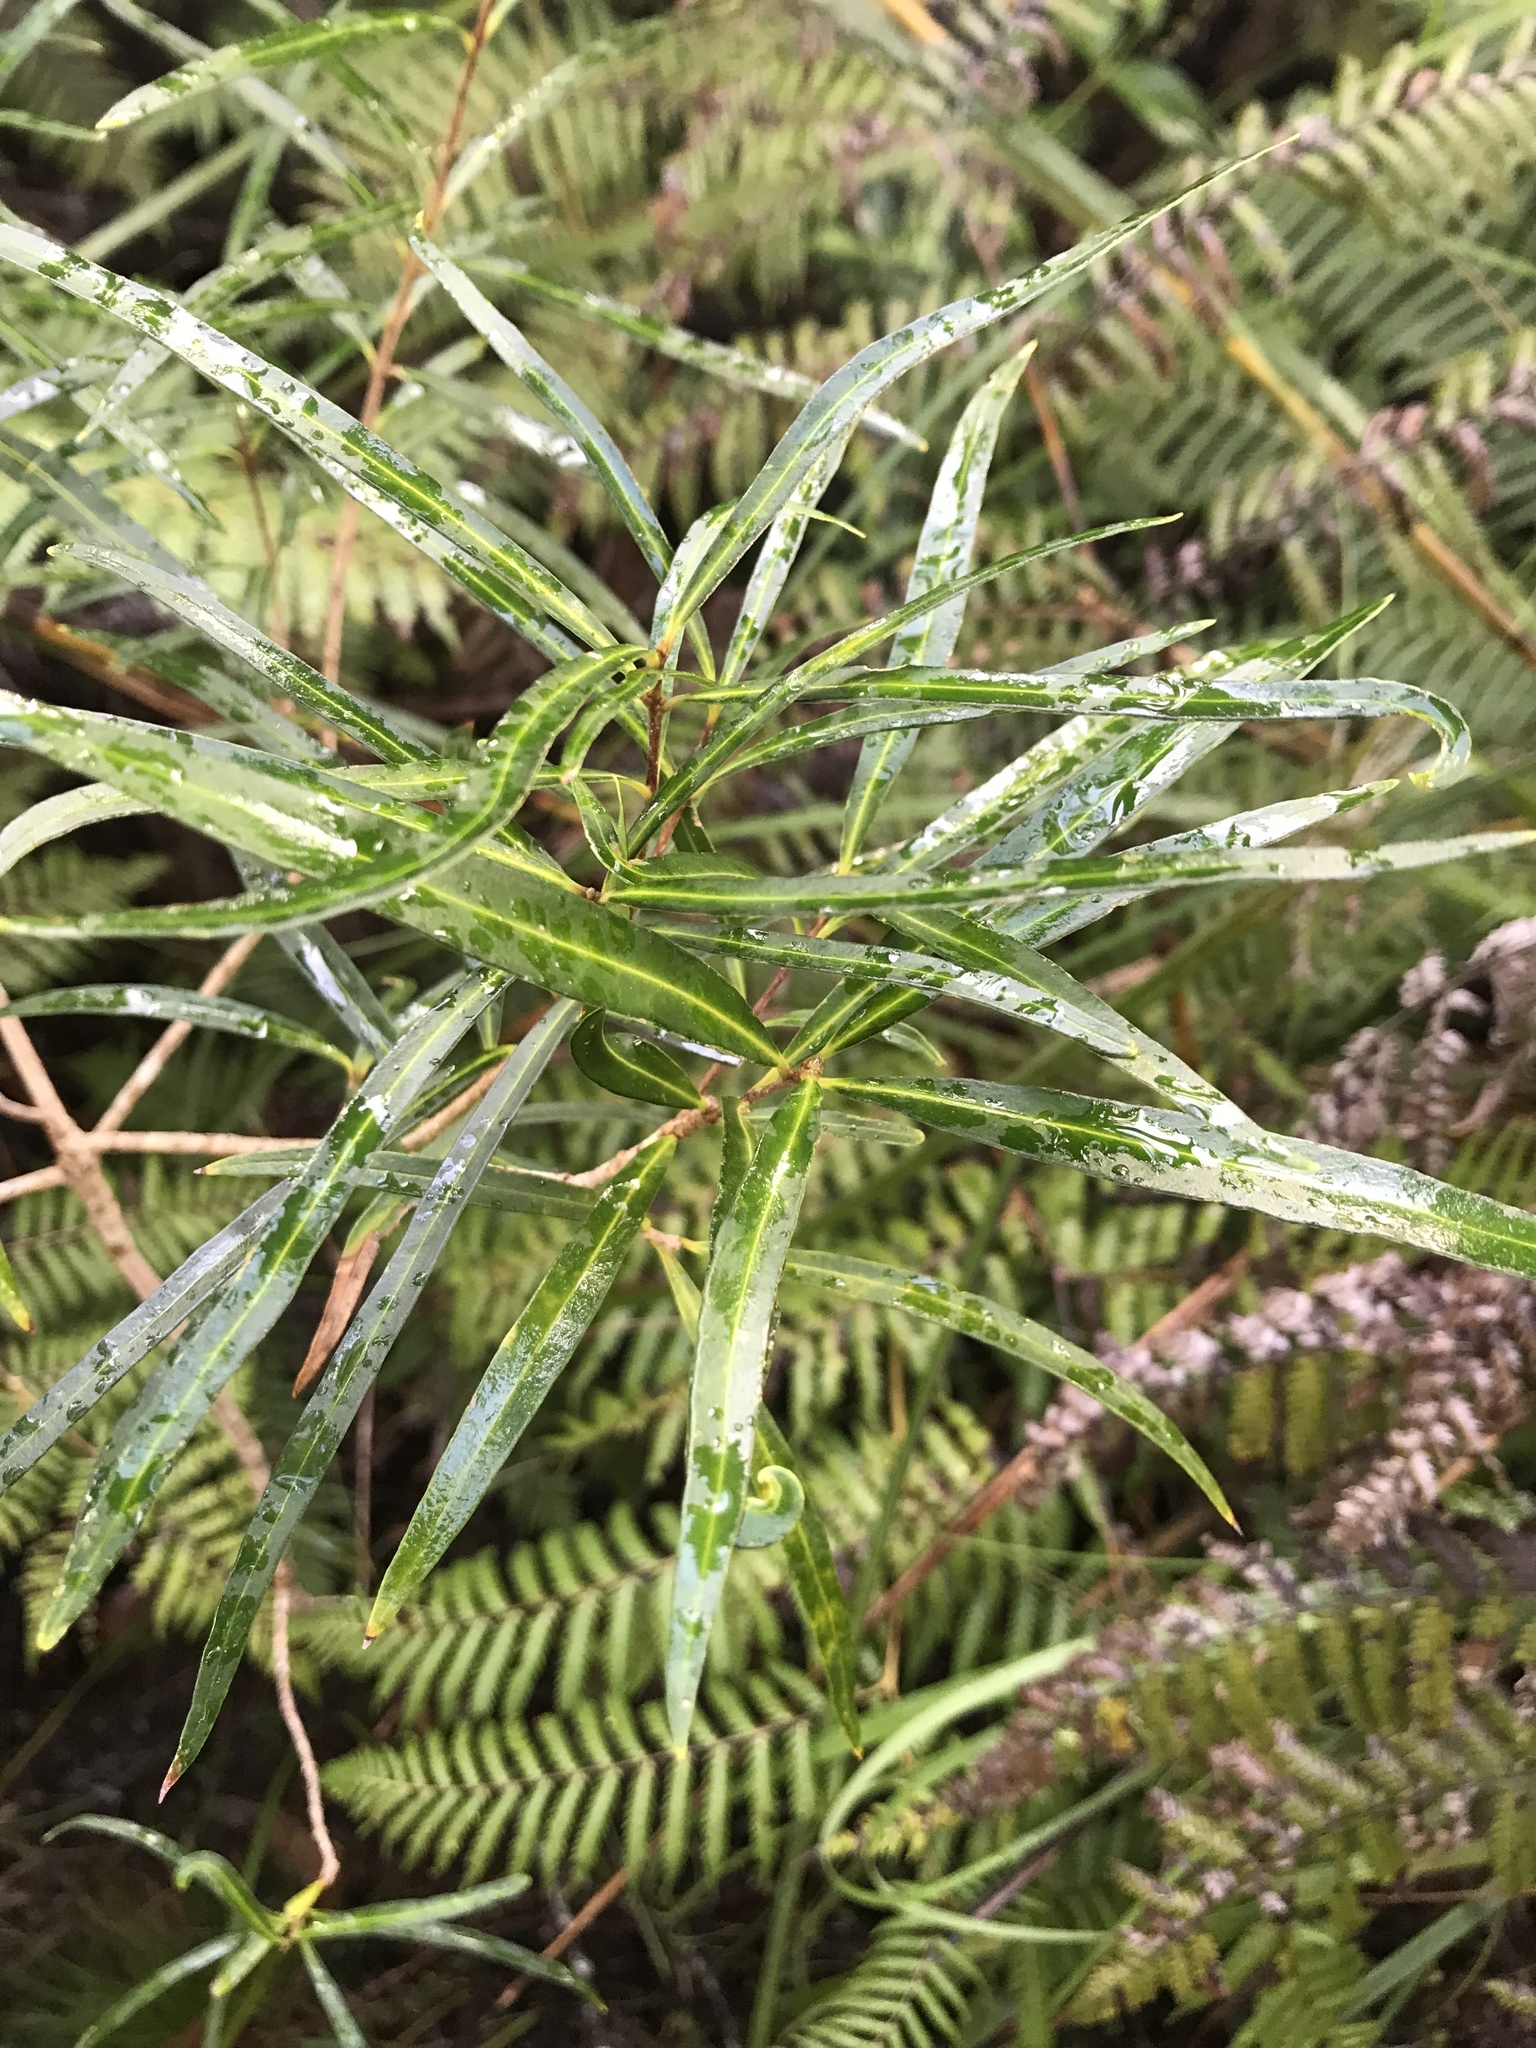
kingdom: Plantae
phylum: Tracheophyta
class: Magnoliopsida
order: Lamiales
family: Oleaceae
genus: Nestegis
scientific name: Nestegis lanceolata
